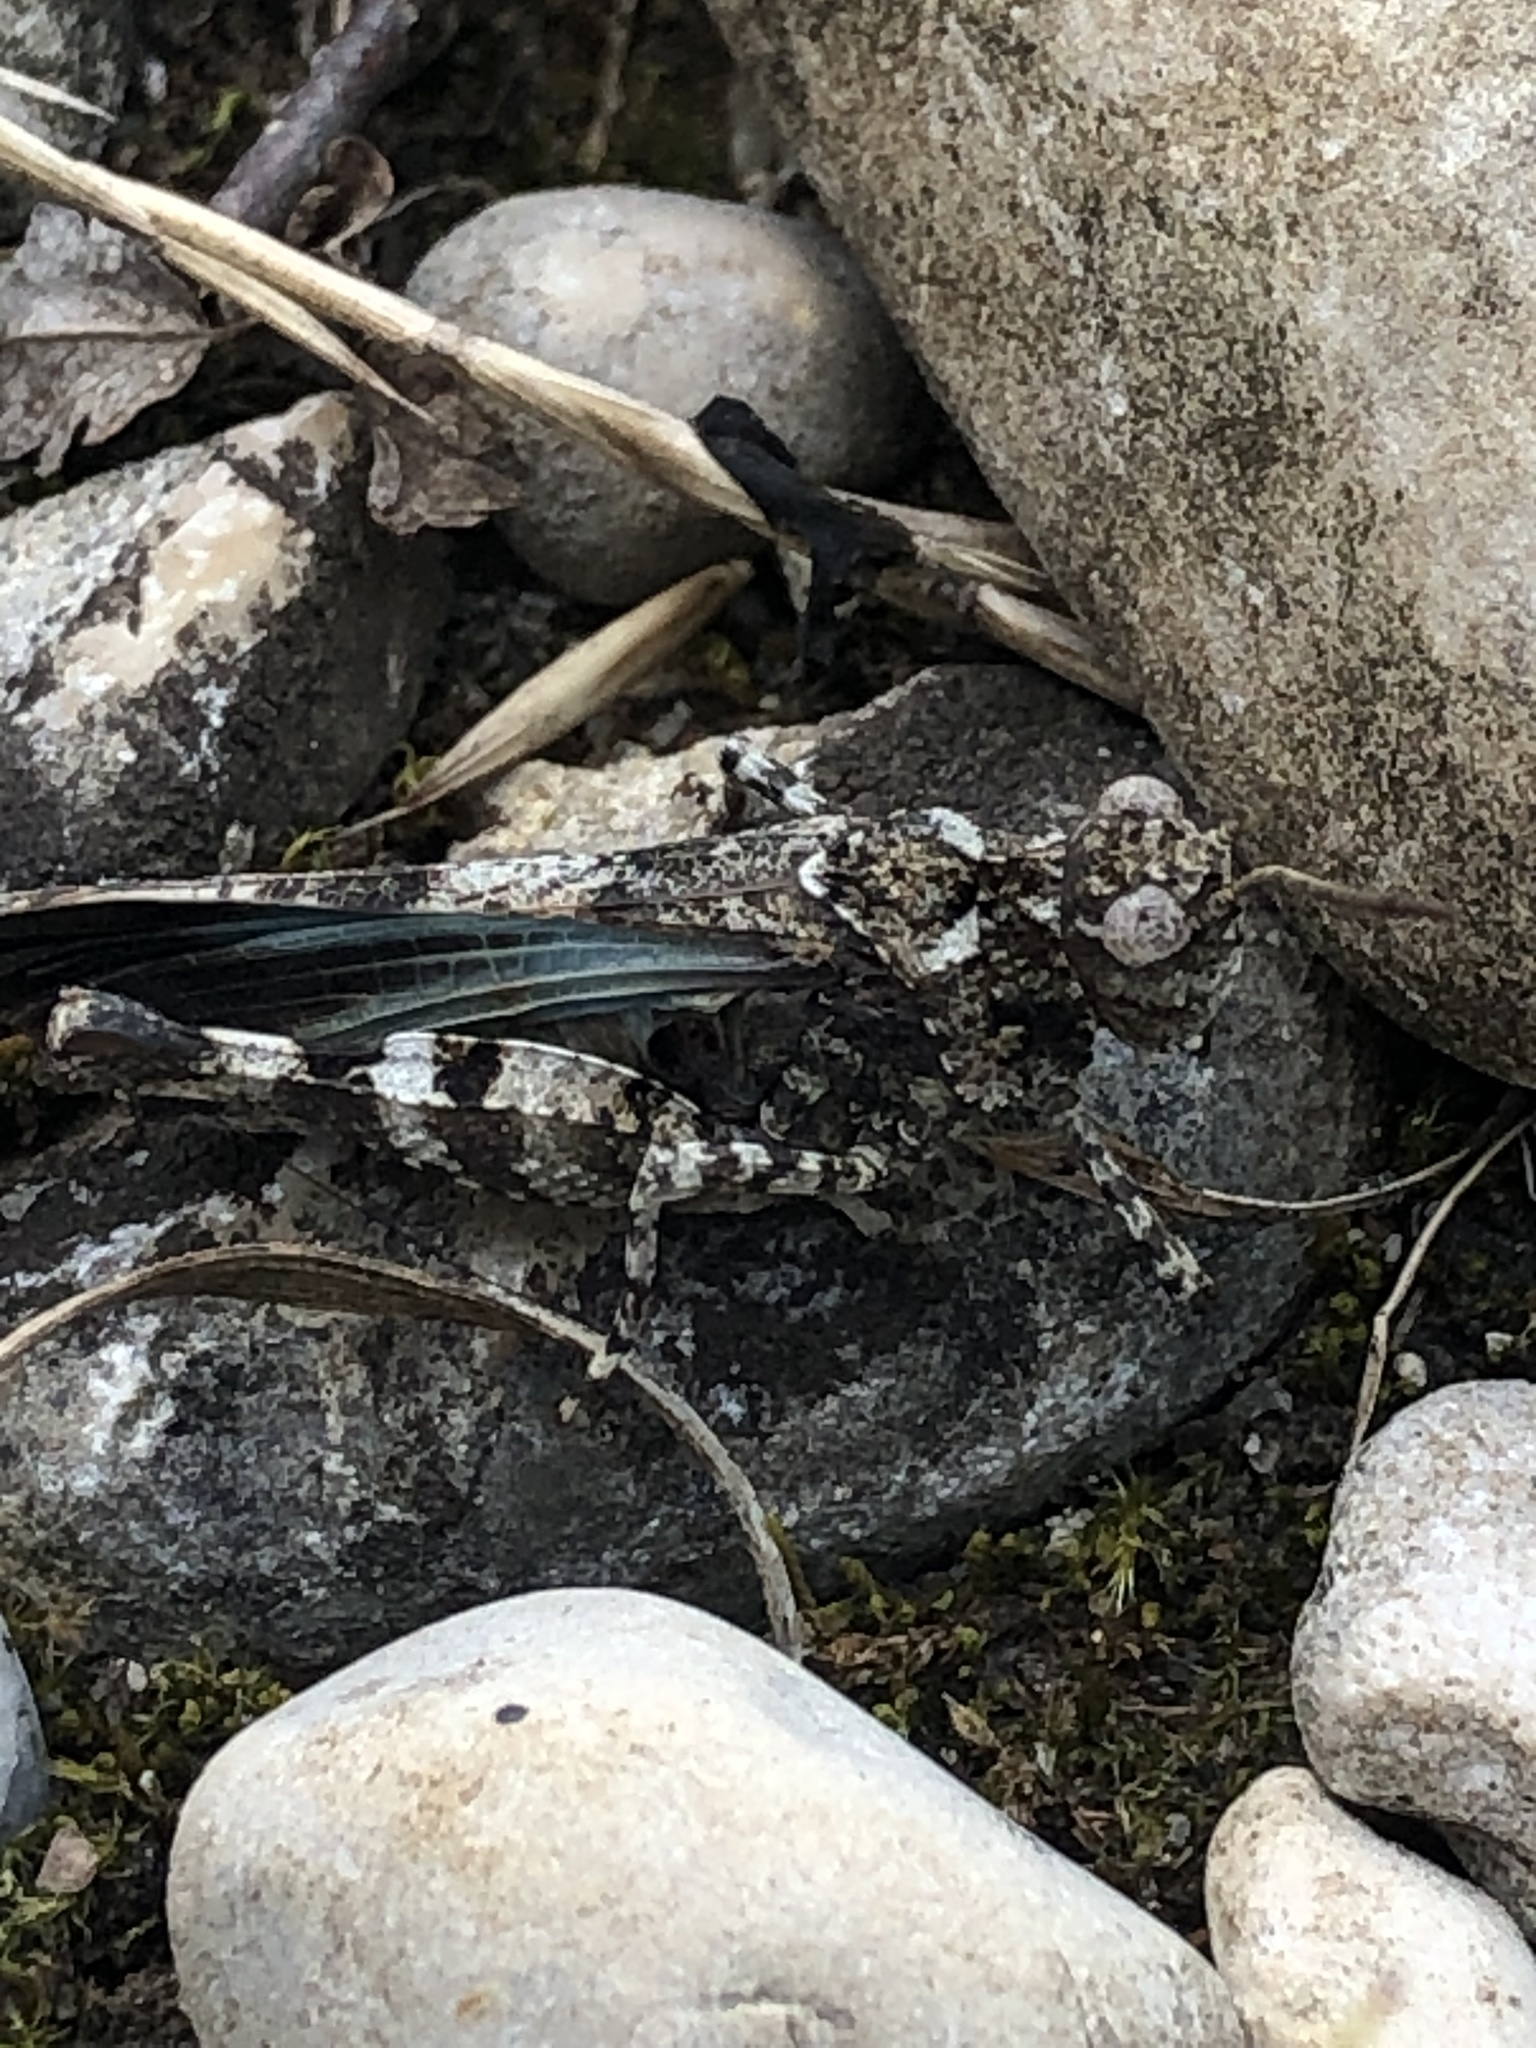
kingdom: Animalia
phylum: Arthropoda
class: Insecta
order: Orthoptera
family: Acrididae
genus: Oedipoda
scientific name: Oedipoda caerulescens
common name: Blue-winged grasshopper
